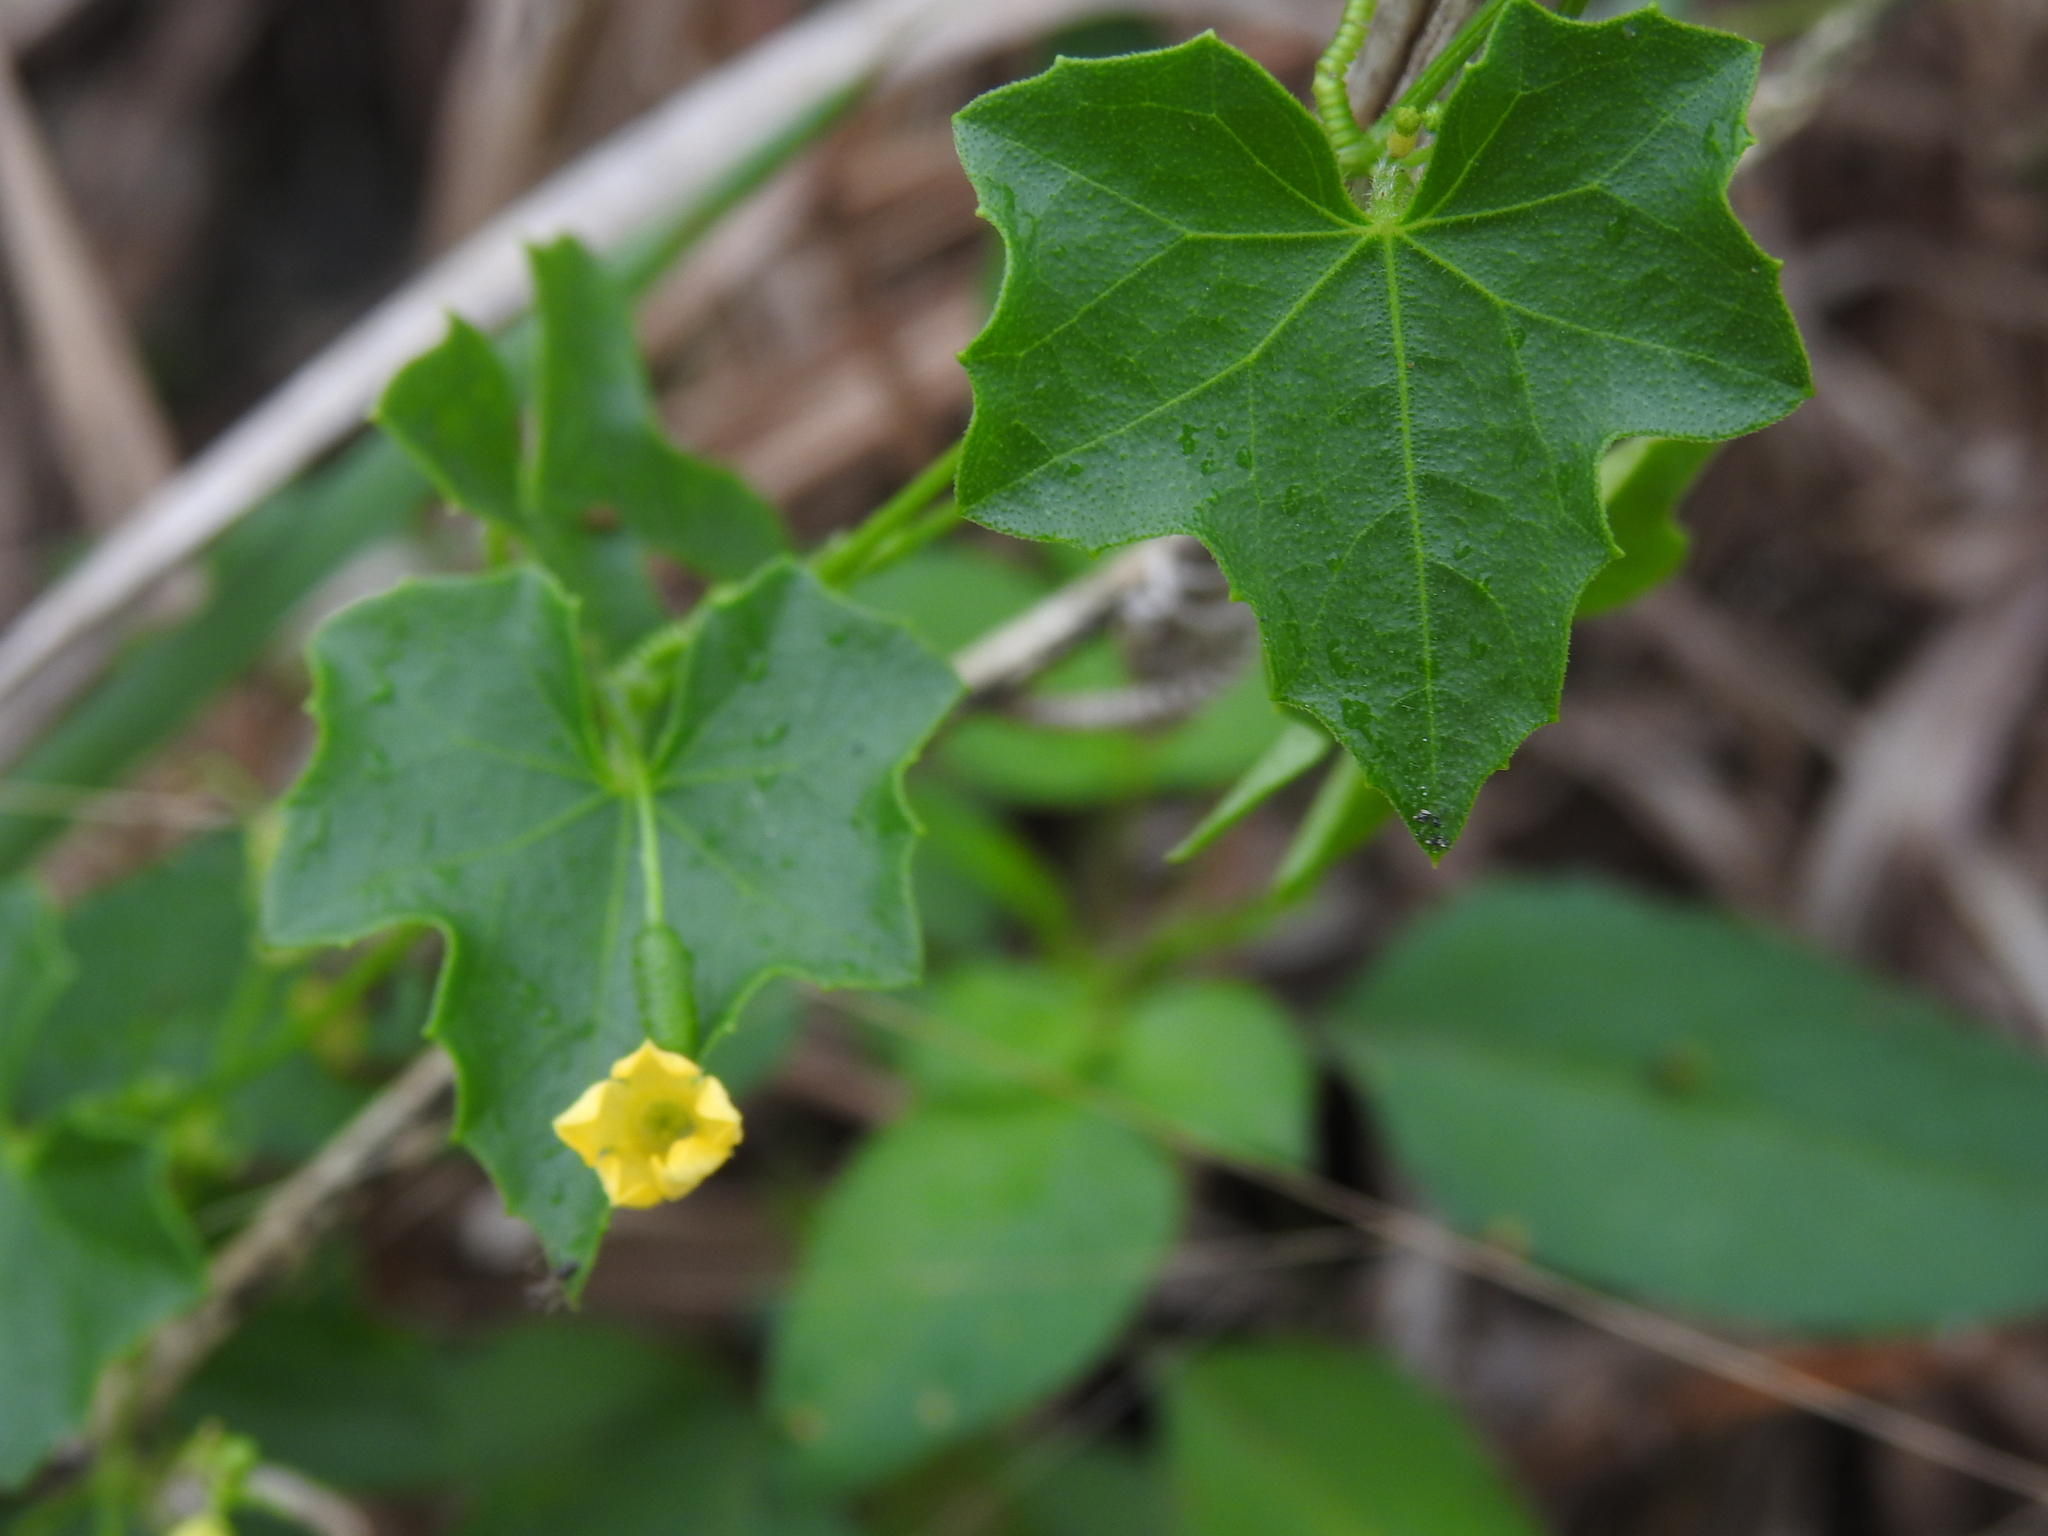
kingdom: Plantae
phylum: Tracheophyta
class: Magnoliopsida
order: Cucurbitales
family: Cucurbitaceae
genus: Melothria
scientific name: Melothria pendula
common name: Creeping-cucumber
